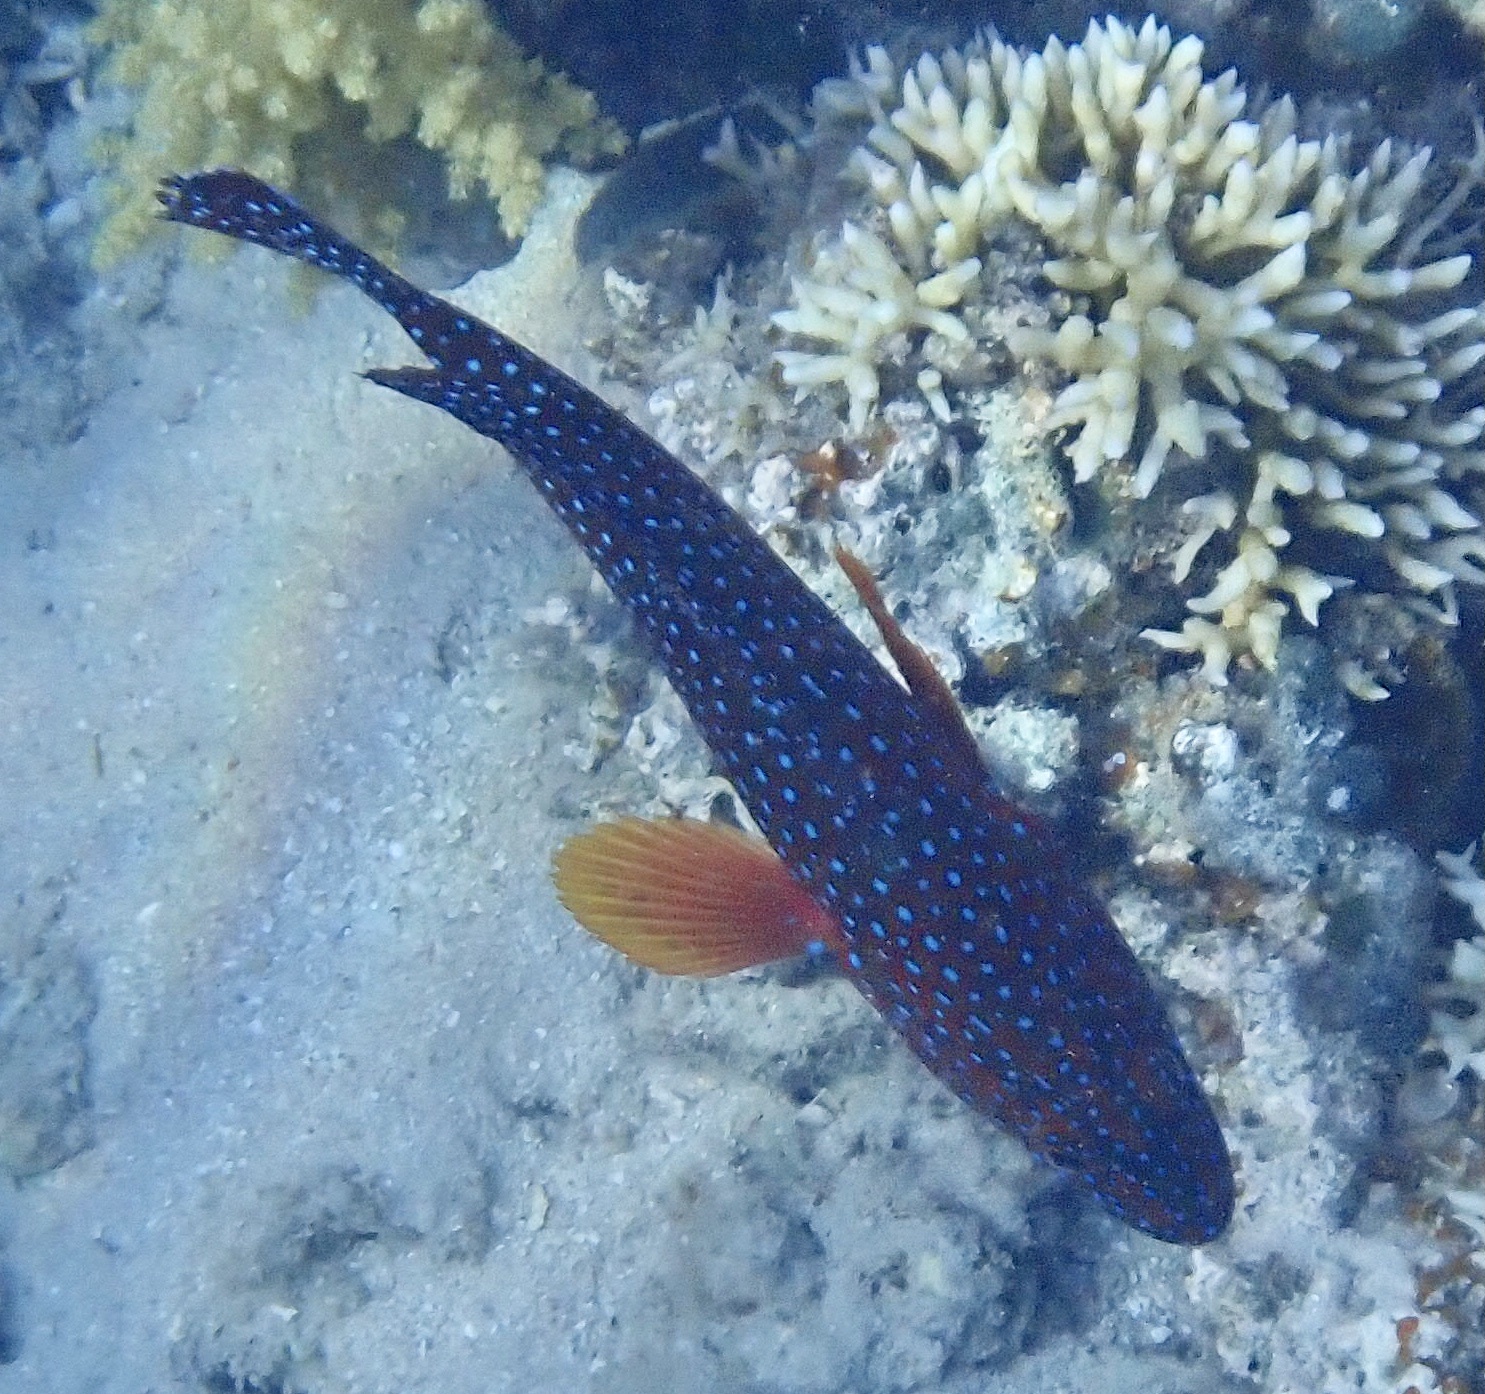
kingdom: Animalia
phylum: Chordata
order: Perciformes
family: Serranidae
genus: Cephalopholis
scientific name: Cephalopholis miniata
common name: Coral hind
